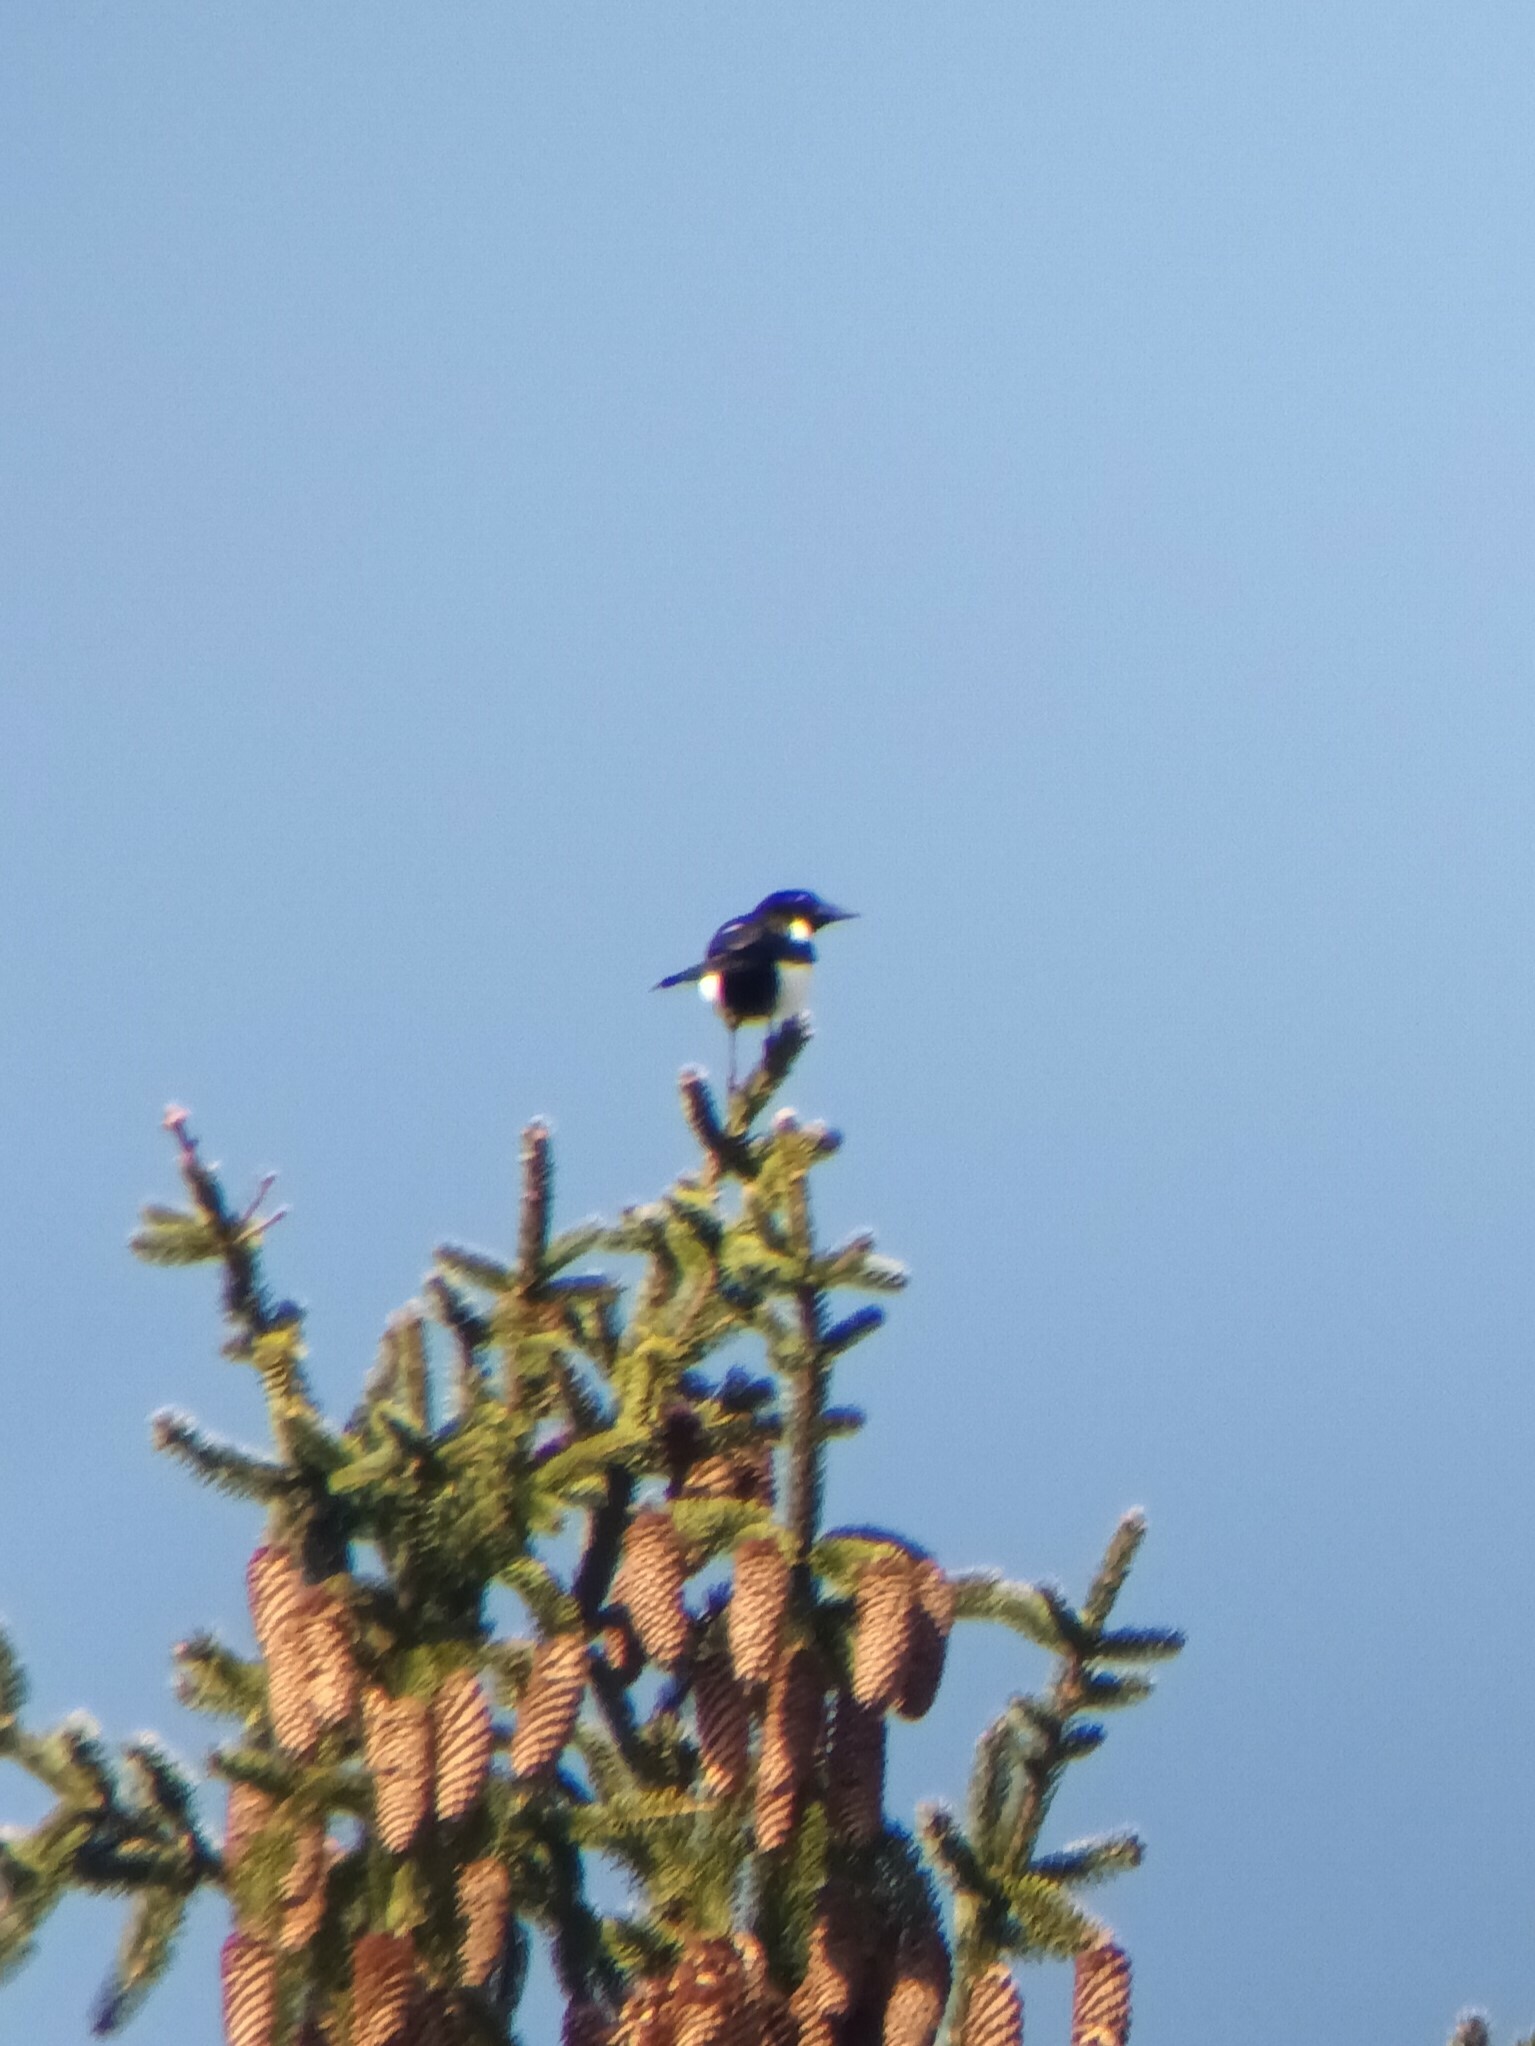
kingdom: Animalia
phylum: Chordata
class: Aves
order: Passeriformes
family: Corvidae
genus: Pica
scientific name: Pica pica
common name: Eurasian magpie
